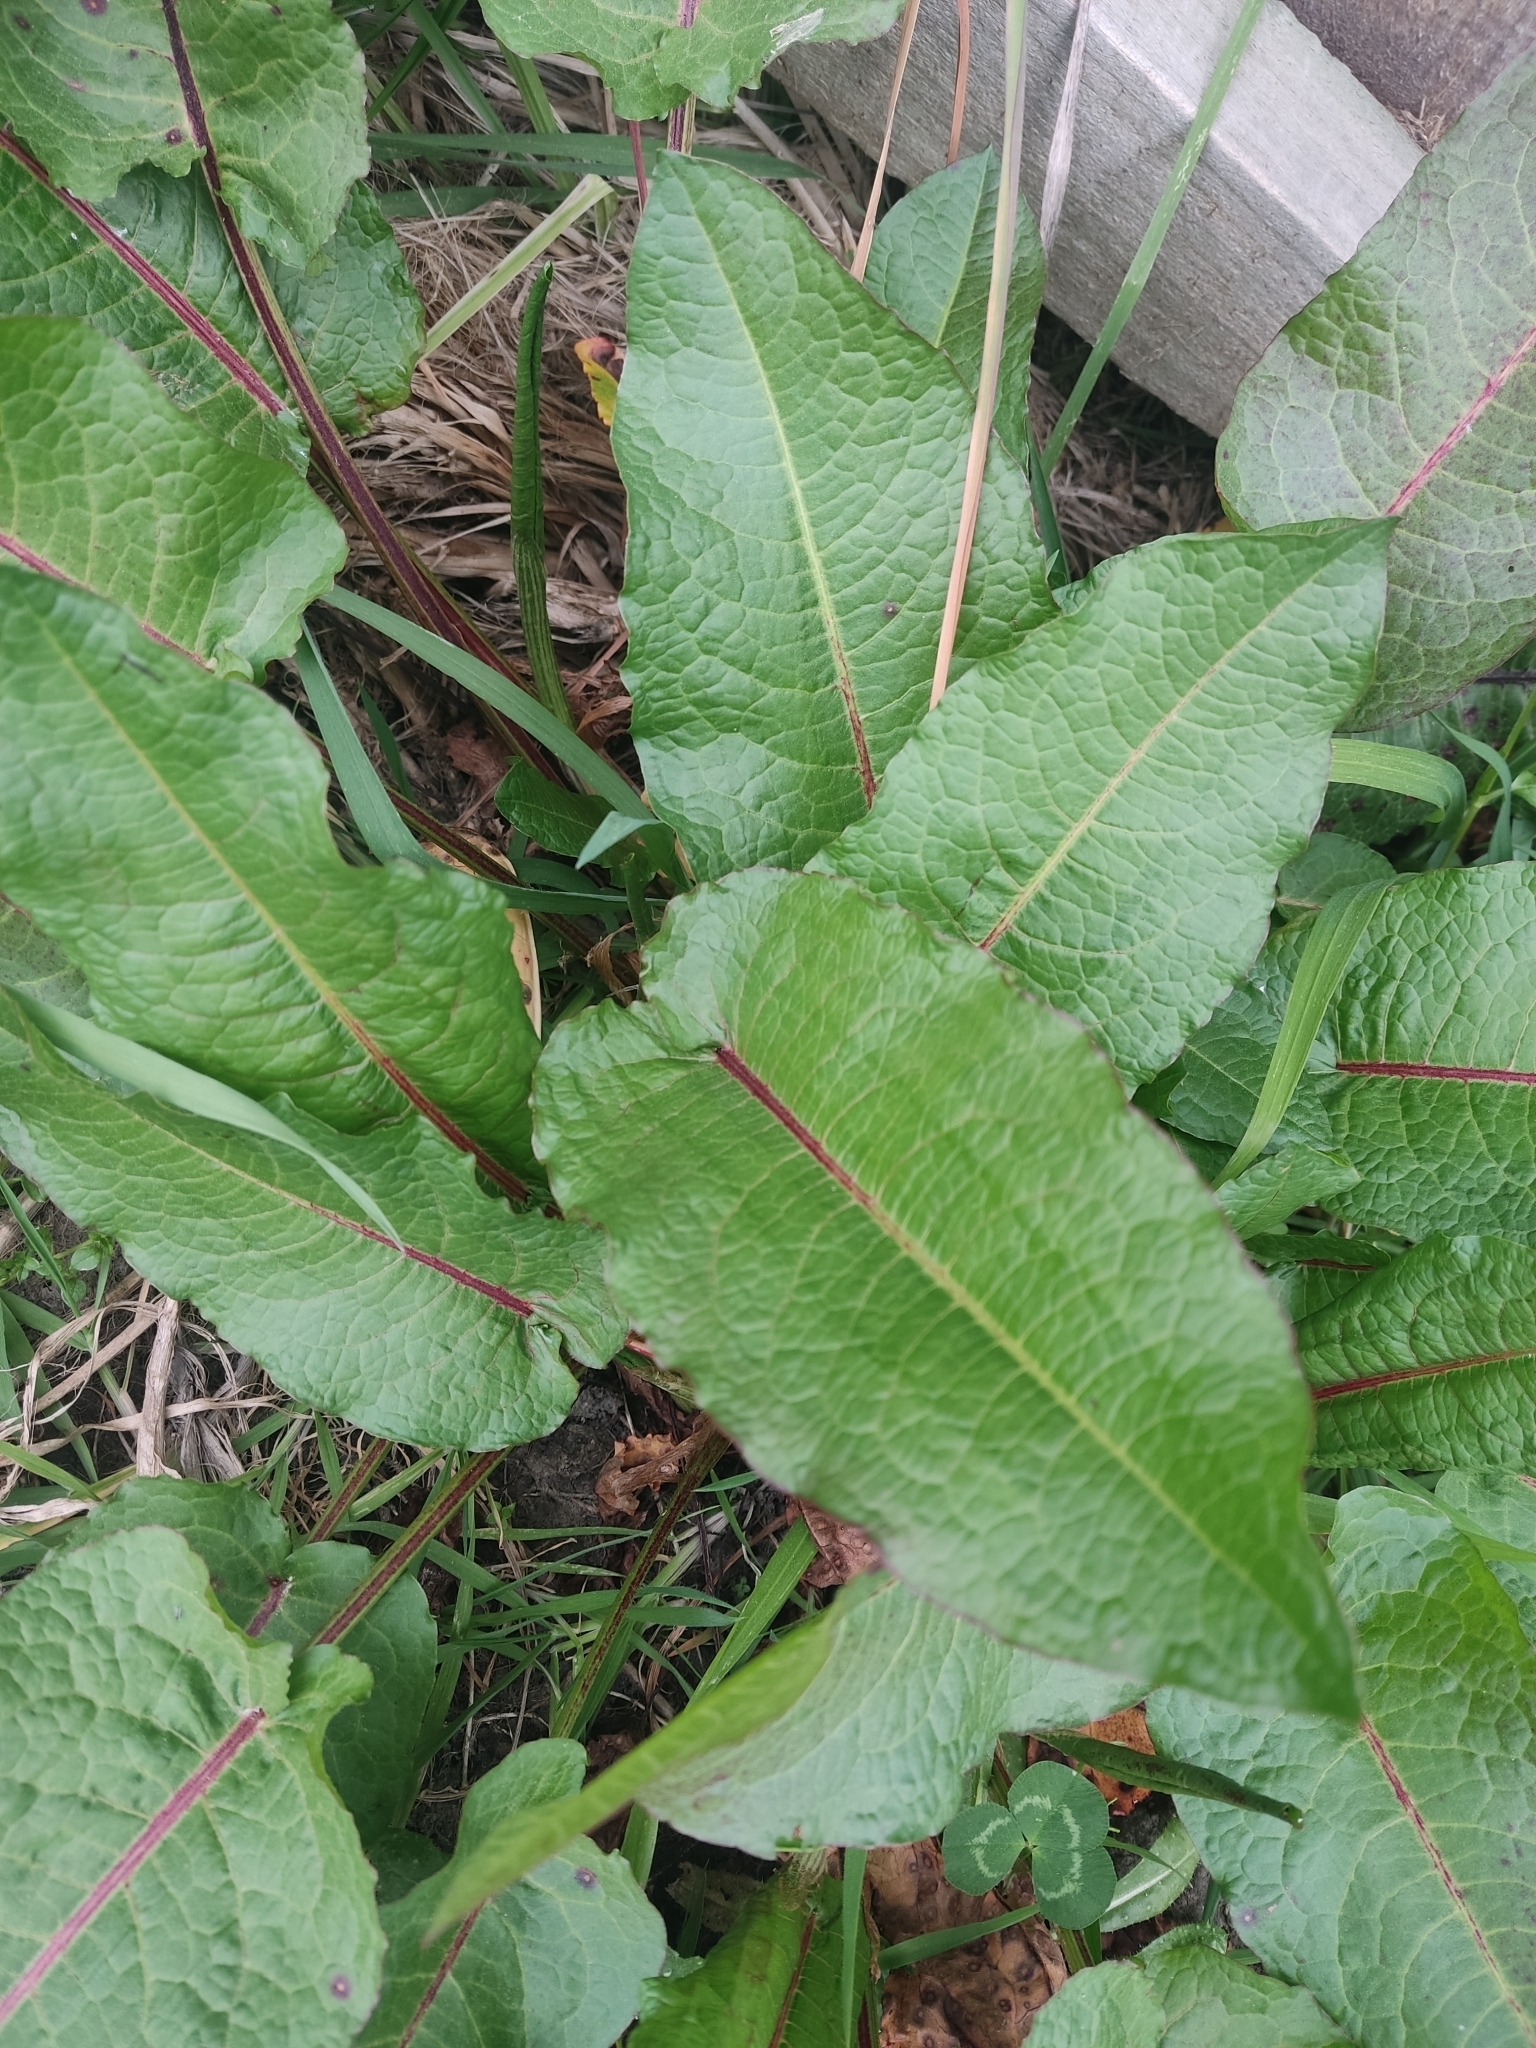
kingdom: Plantae
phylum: Tracheophyta
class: Magnoliopsida
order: Caryophyllales
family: Polygonaceae
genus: Rumex
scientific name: Rumex obtusifolius
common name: Bitter dock
